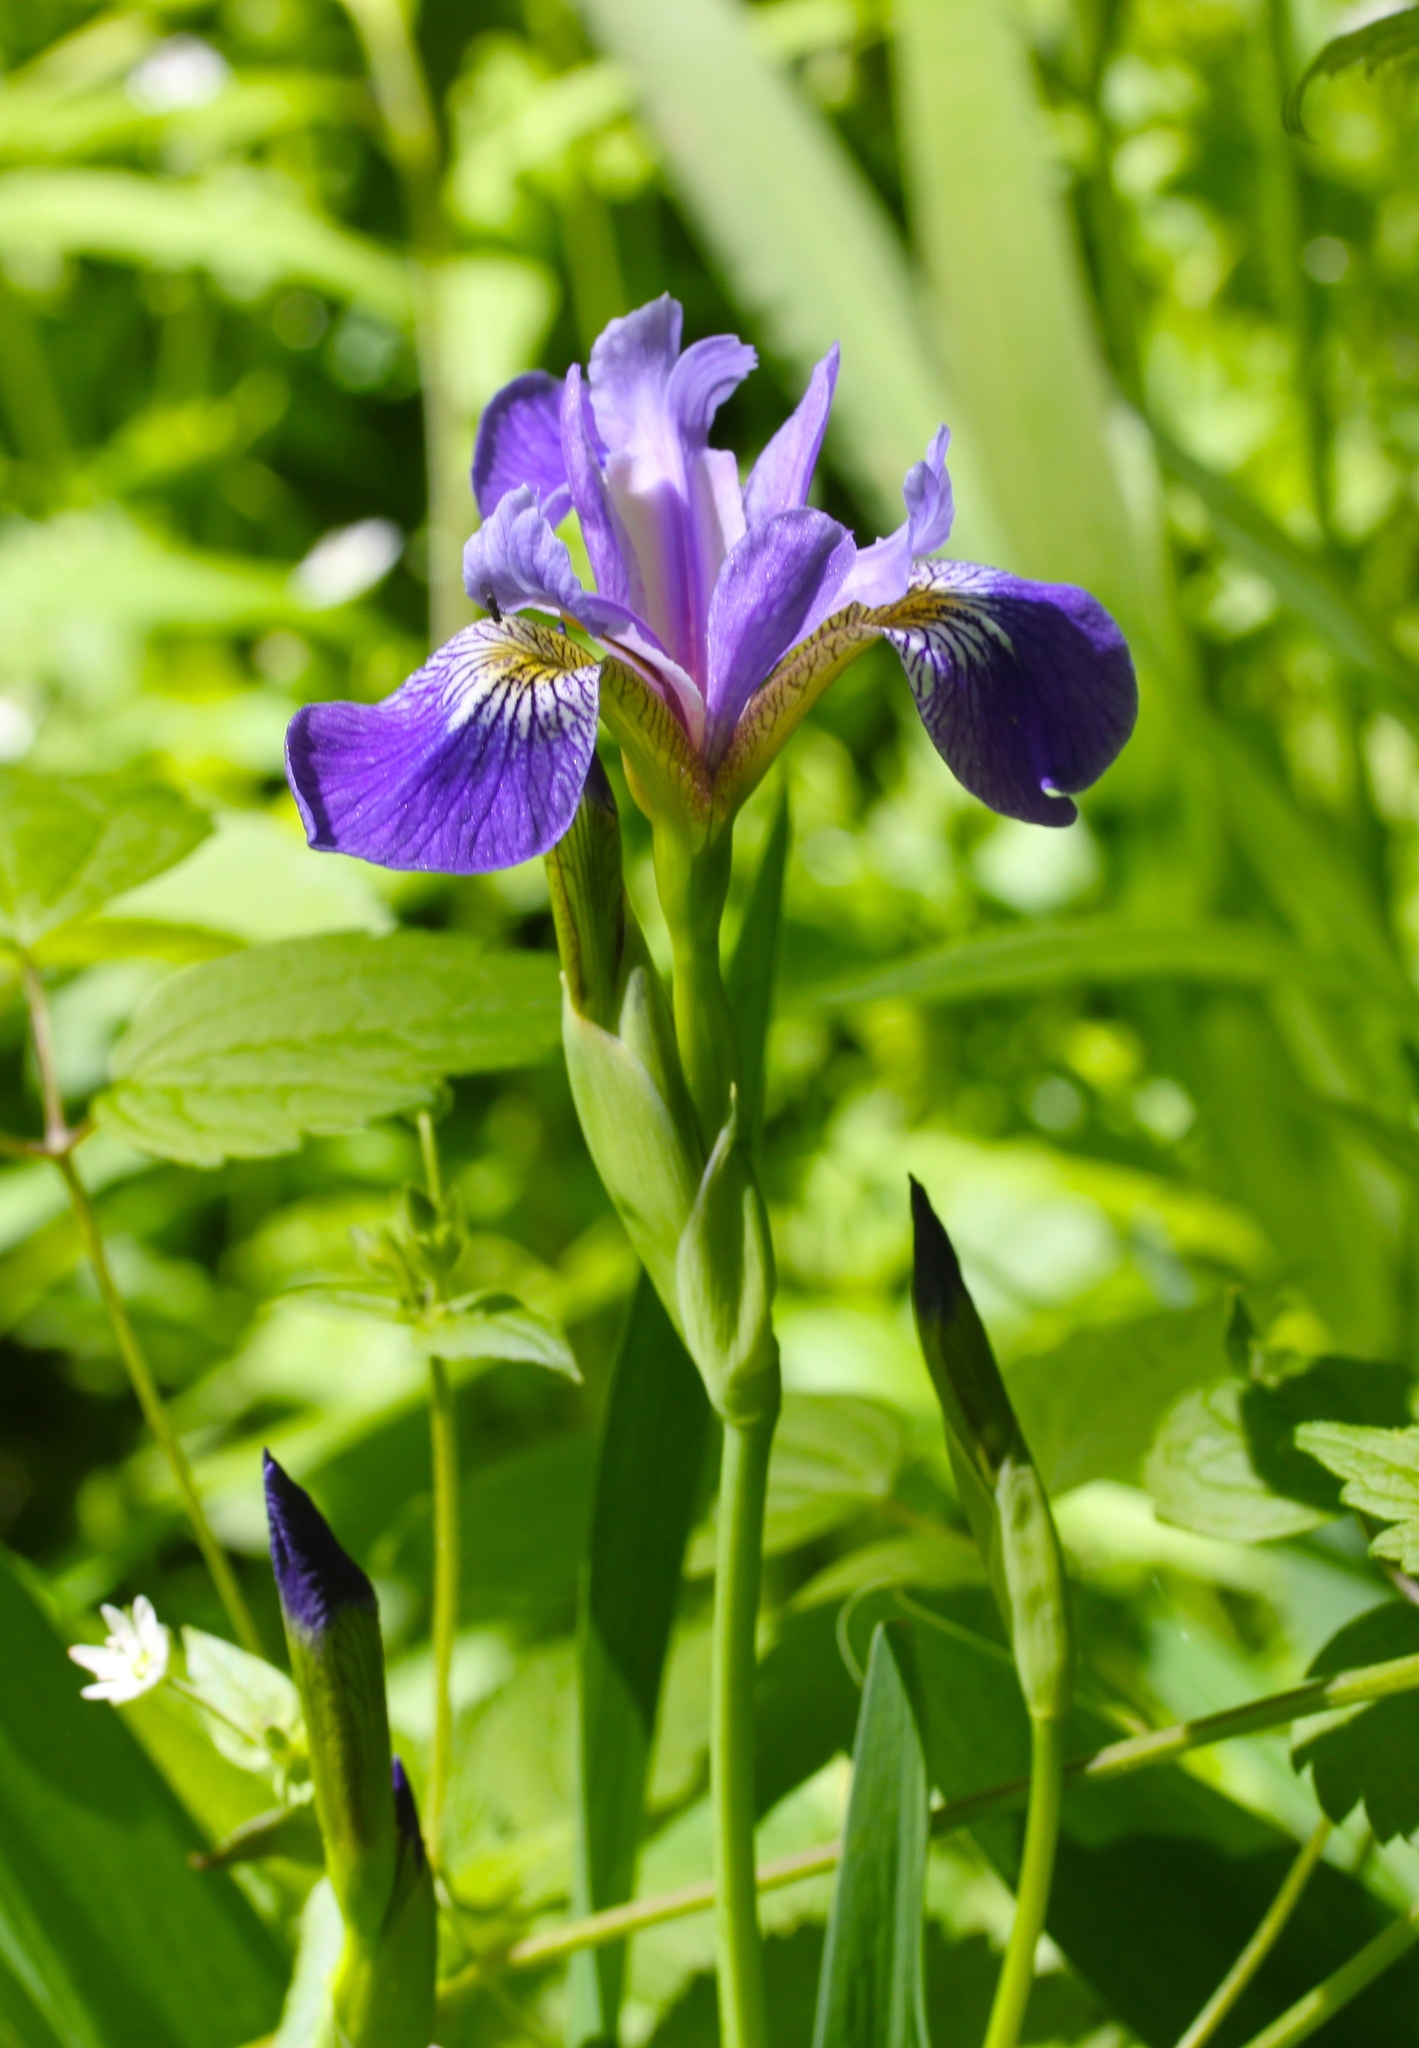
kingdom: Plantae
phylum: Tracheophyta
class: Liliopsida
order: Asparagales
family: Iridaceae
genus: Iris
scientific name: Iris versicolor
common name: Purple iris
